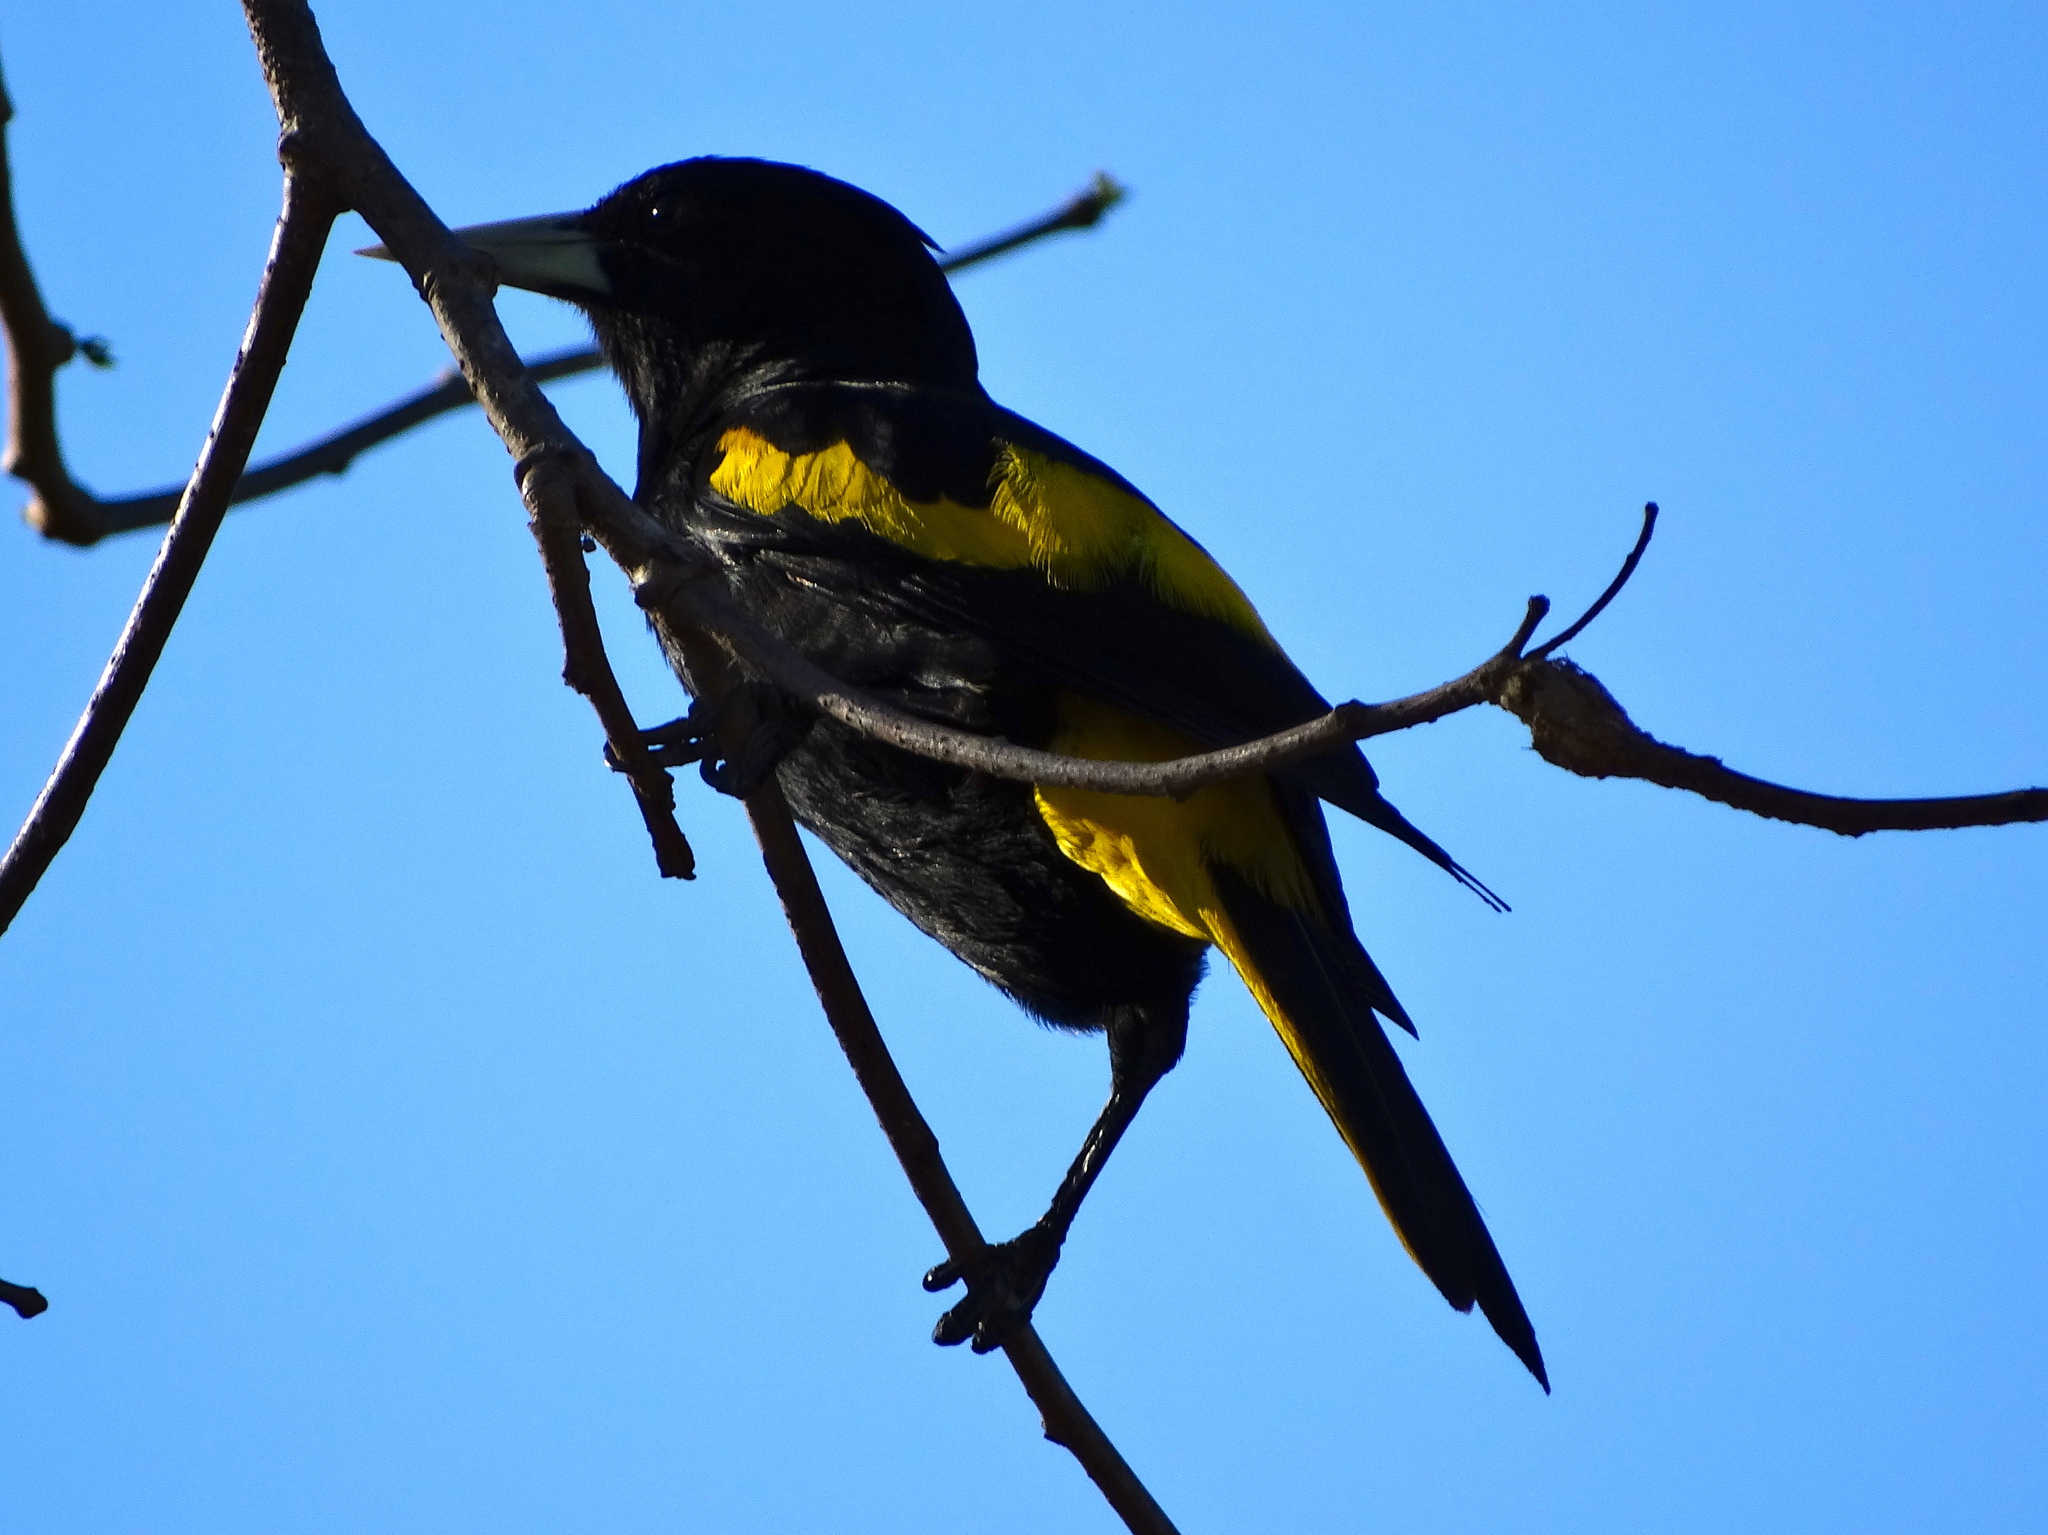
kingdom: Animalia
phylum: Chordata
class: Aves
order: Passeriformes
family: Icteridae
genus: Cacicus
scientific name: Cacicus melanicterus
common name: Yellow-winged cacique
